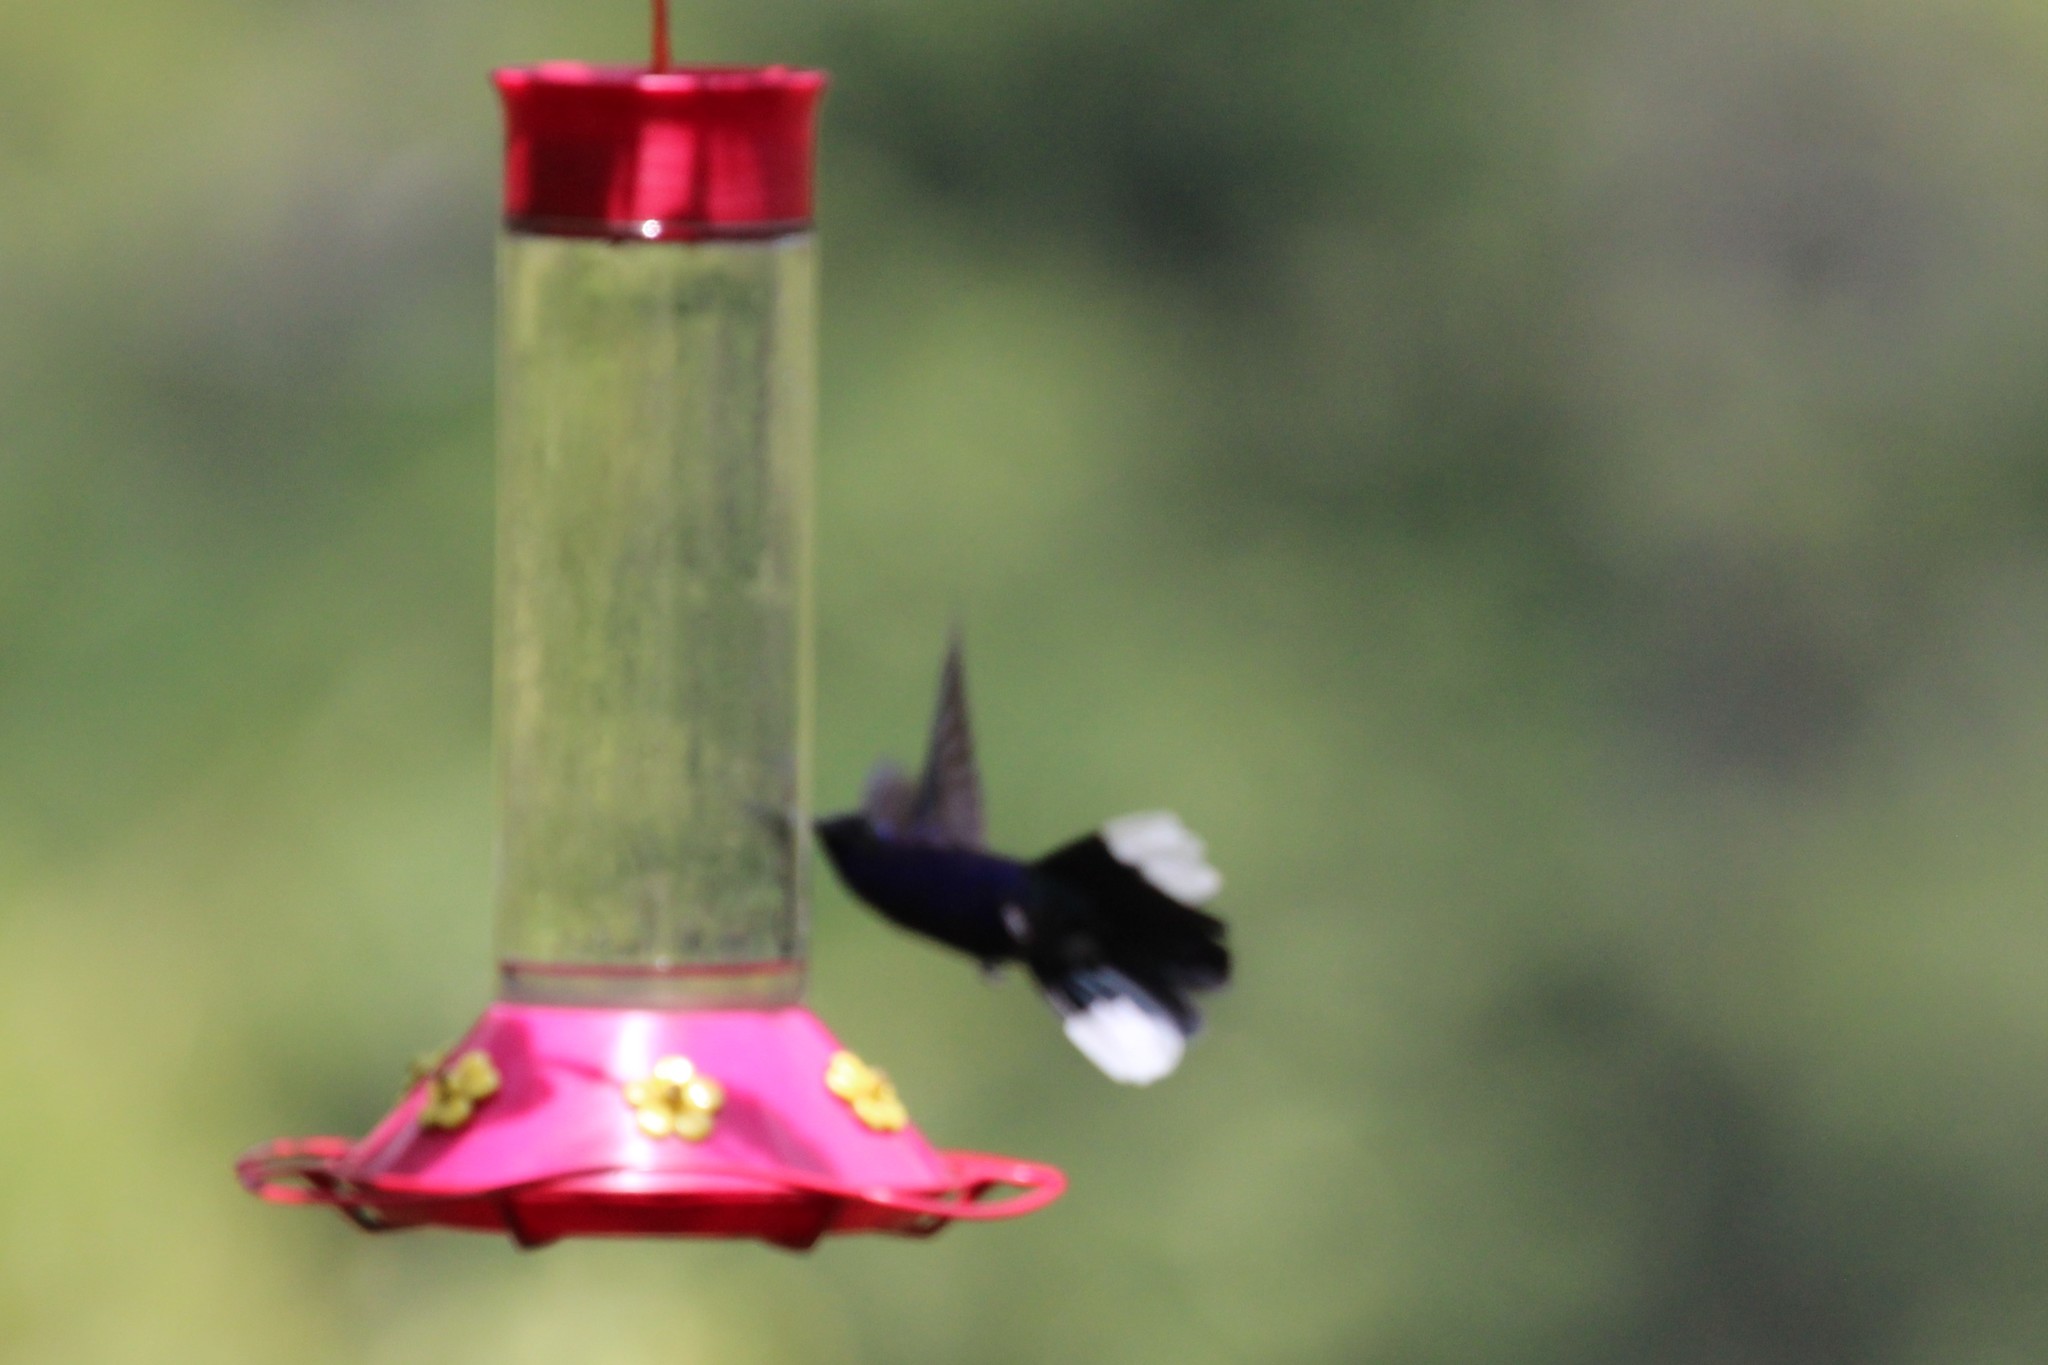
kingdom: Animalia
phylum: Chordata
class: Aves
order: Apodiformes
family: Trochilidae
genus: Campylopterus
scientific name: Campylopterus hemileucurus
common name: Violet sabrewing
